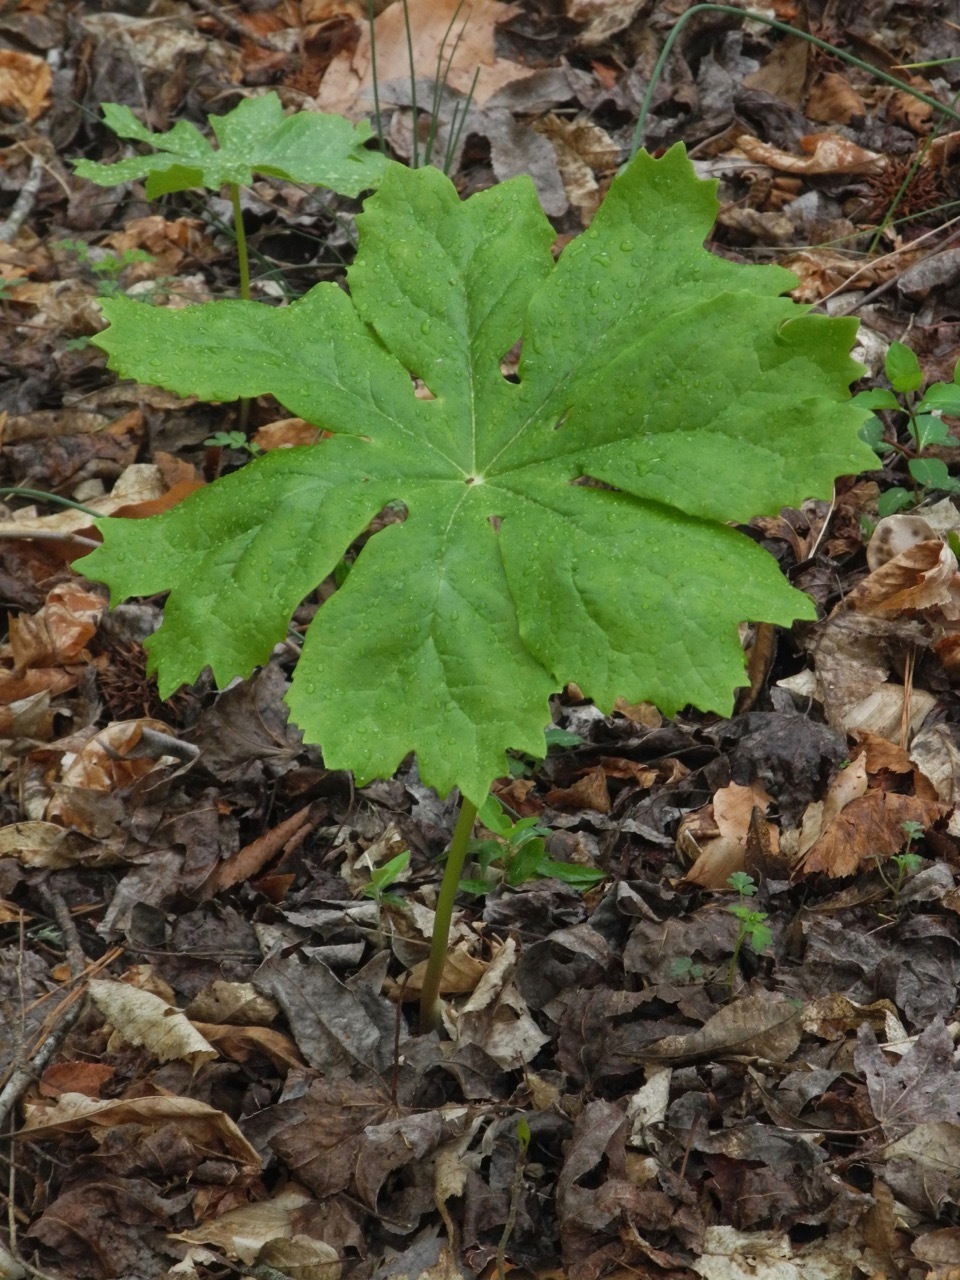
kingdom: Plantae
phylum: Tracheophyta
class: Magnoliopsida
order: Ranunculales
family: Berberidaceae
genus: Podophyllum
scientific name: Podophyllum peltatum
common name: Wild mandrake
